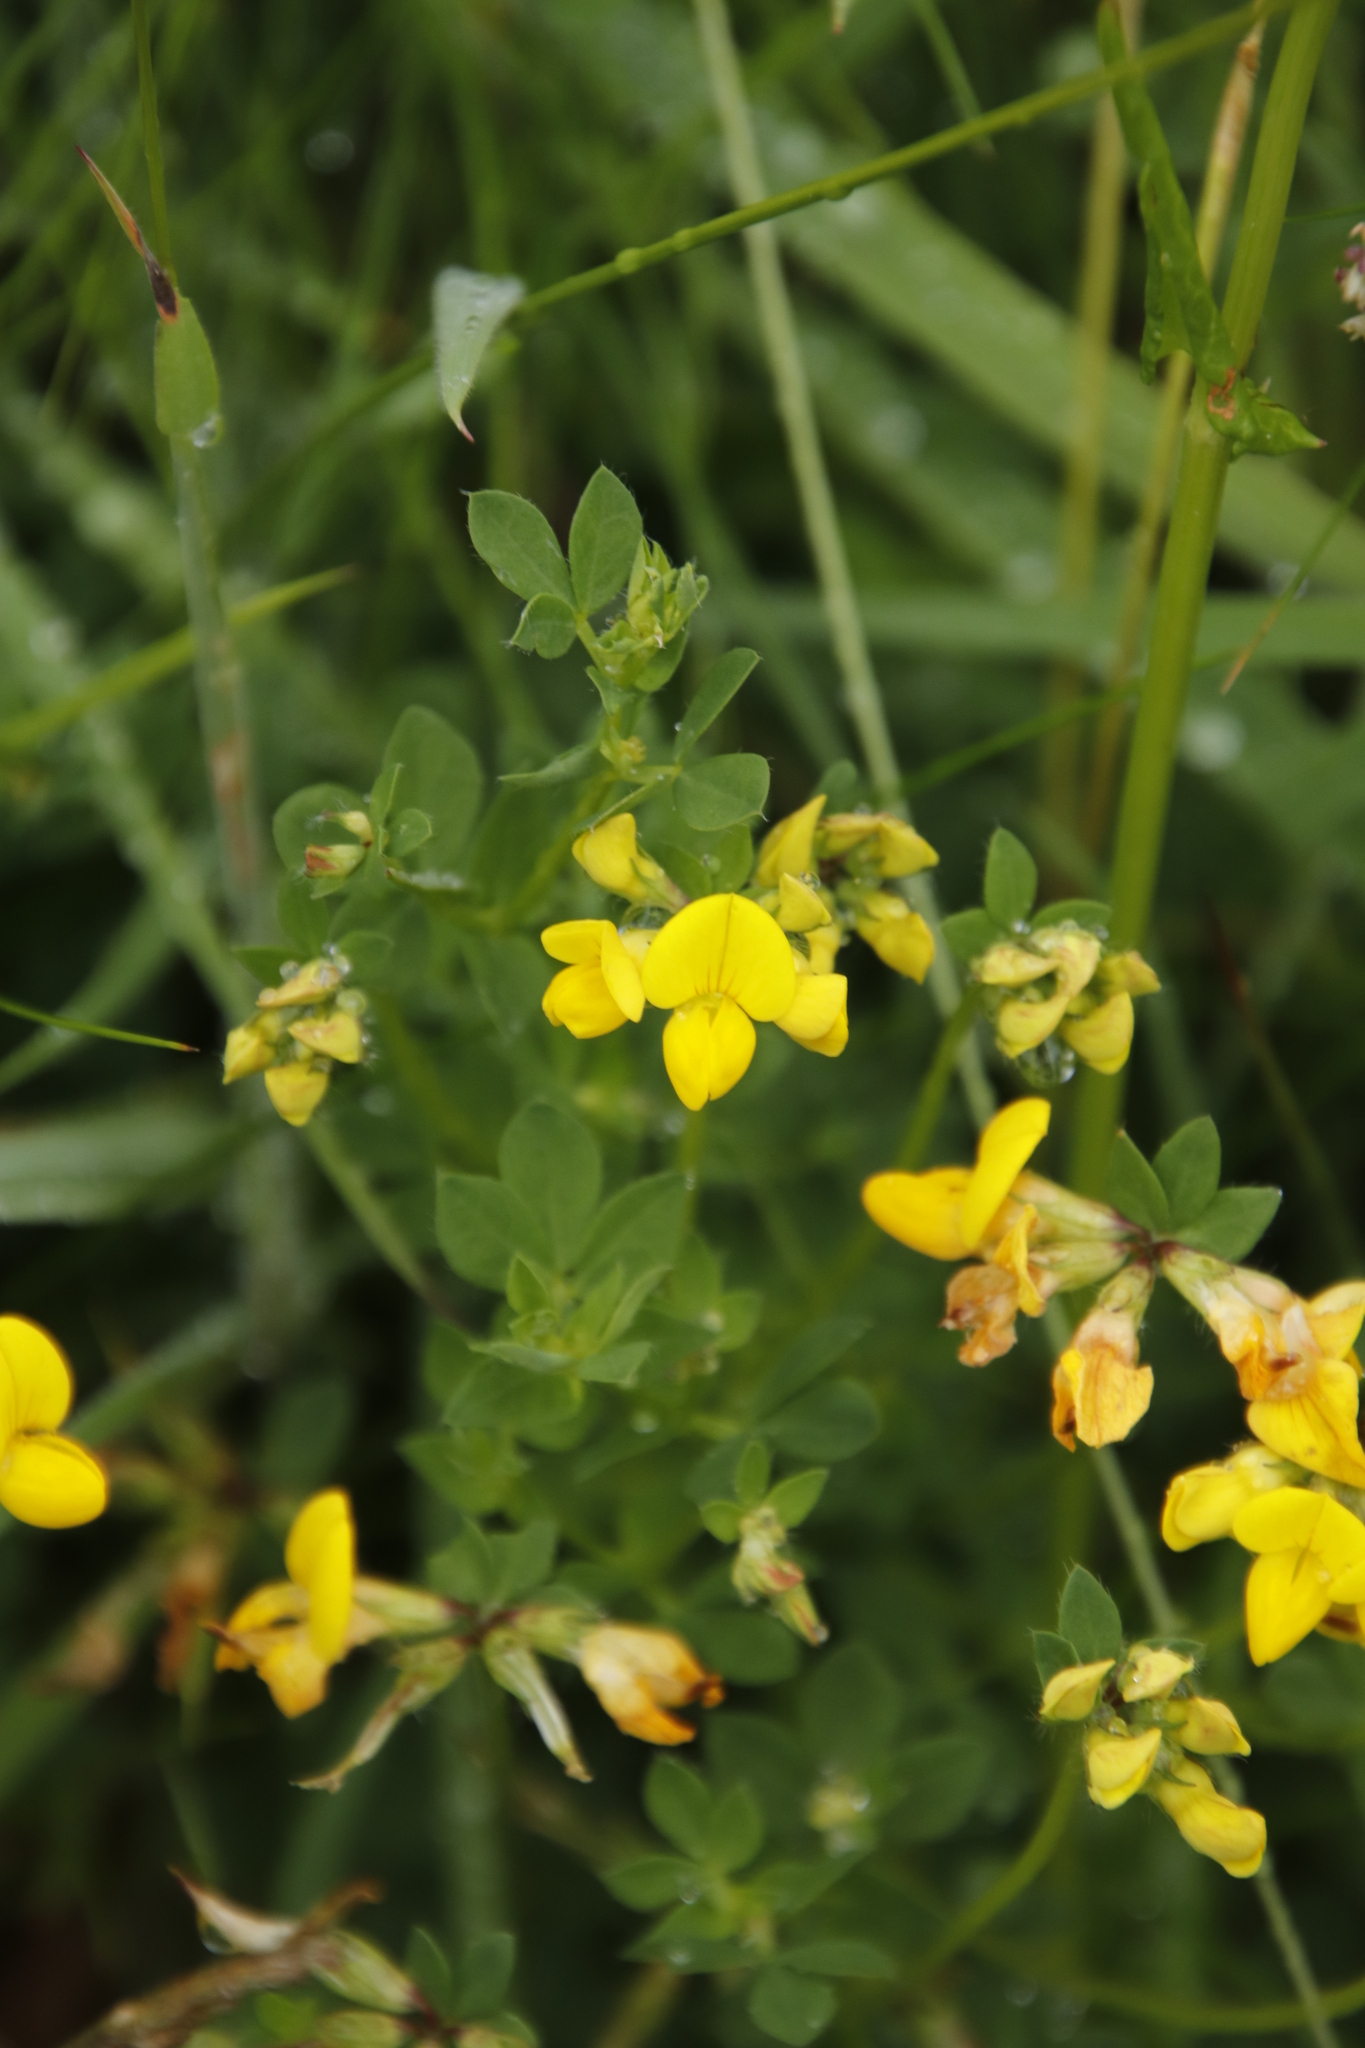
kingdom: Plantae
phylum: Tracheophyta
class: Magnoliopsida
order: Fabales
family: Fabaceae
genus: Lotus
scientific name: Lotus corniculatus
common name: Common bird's-foot-trefoil
